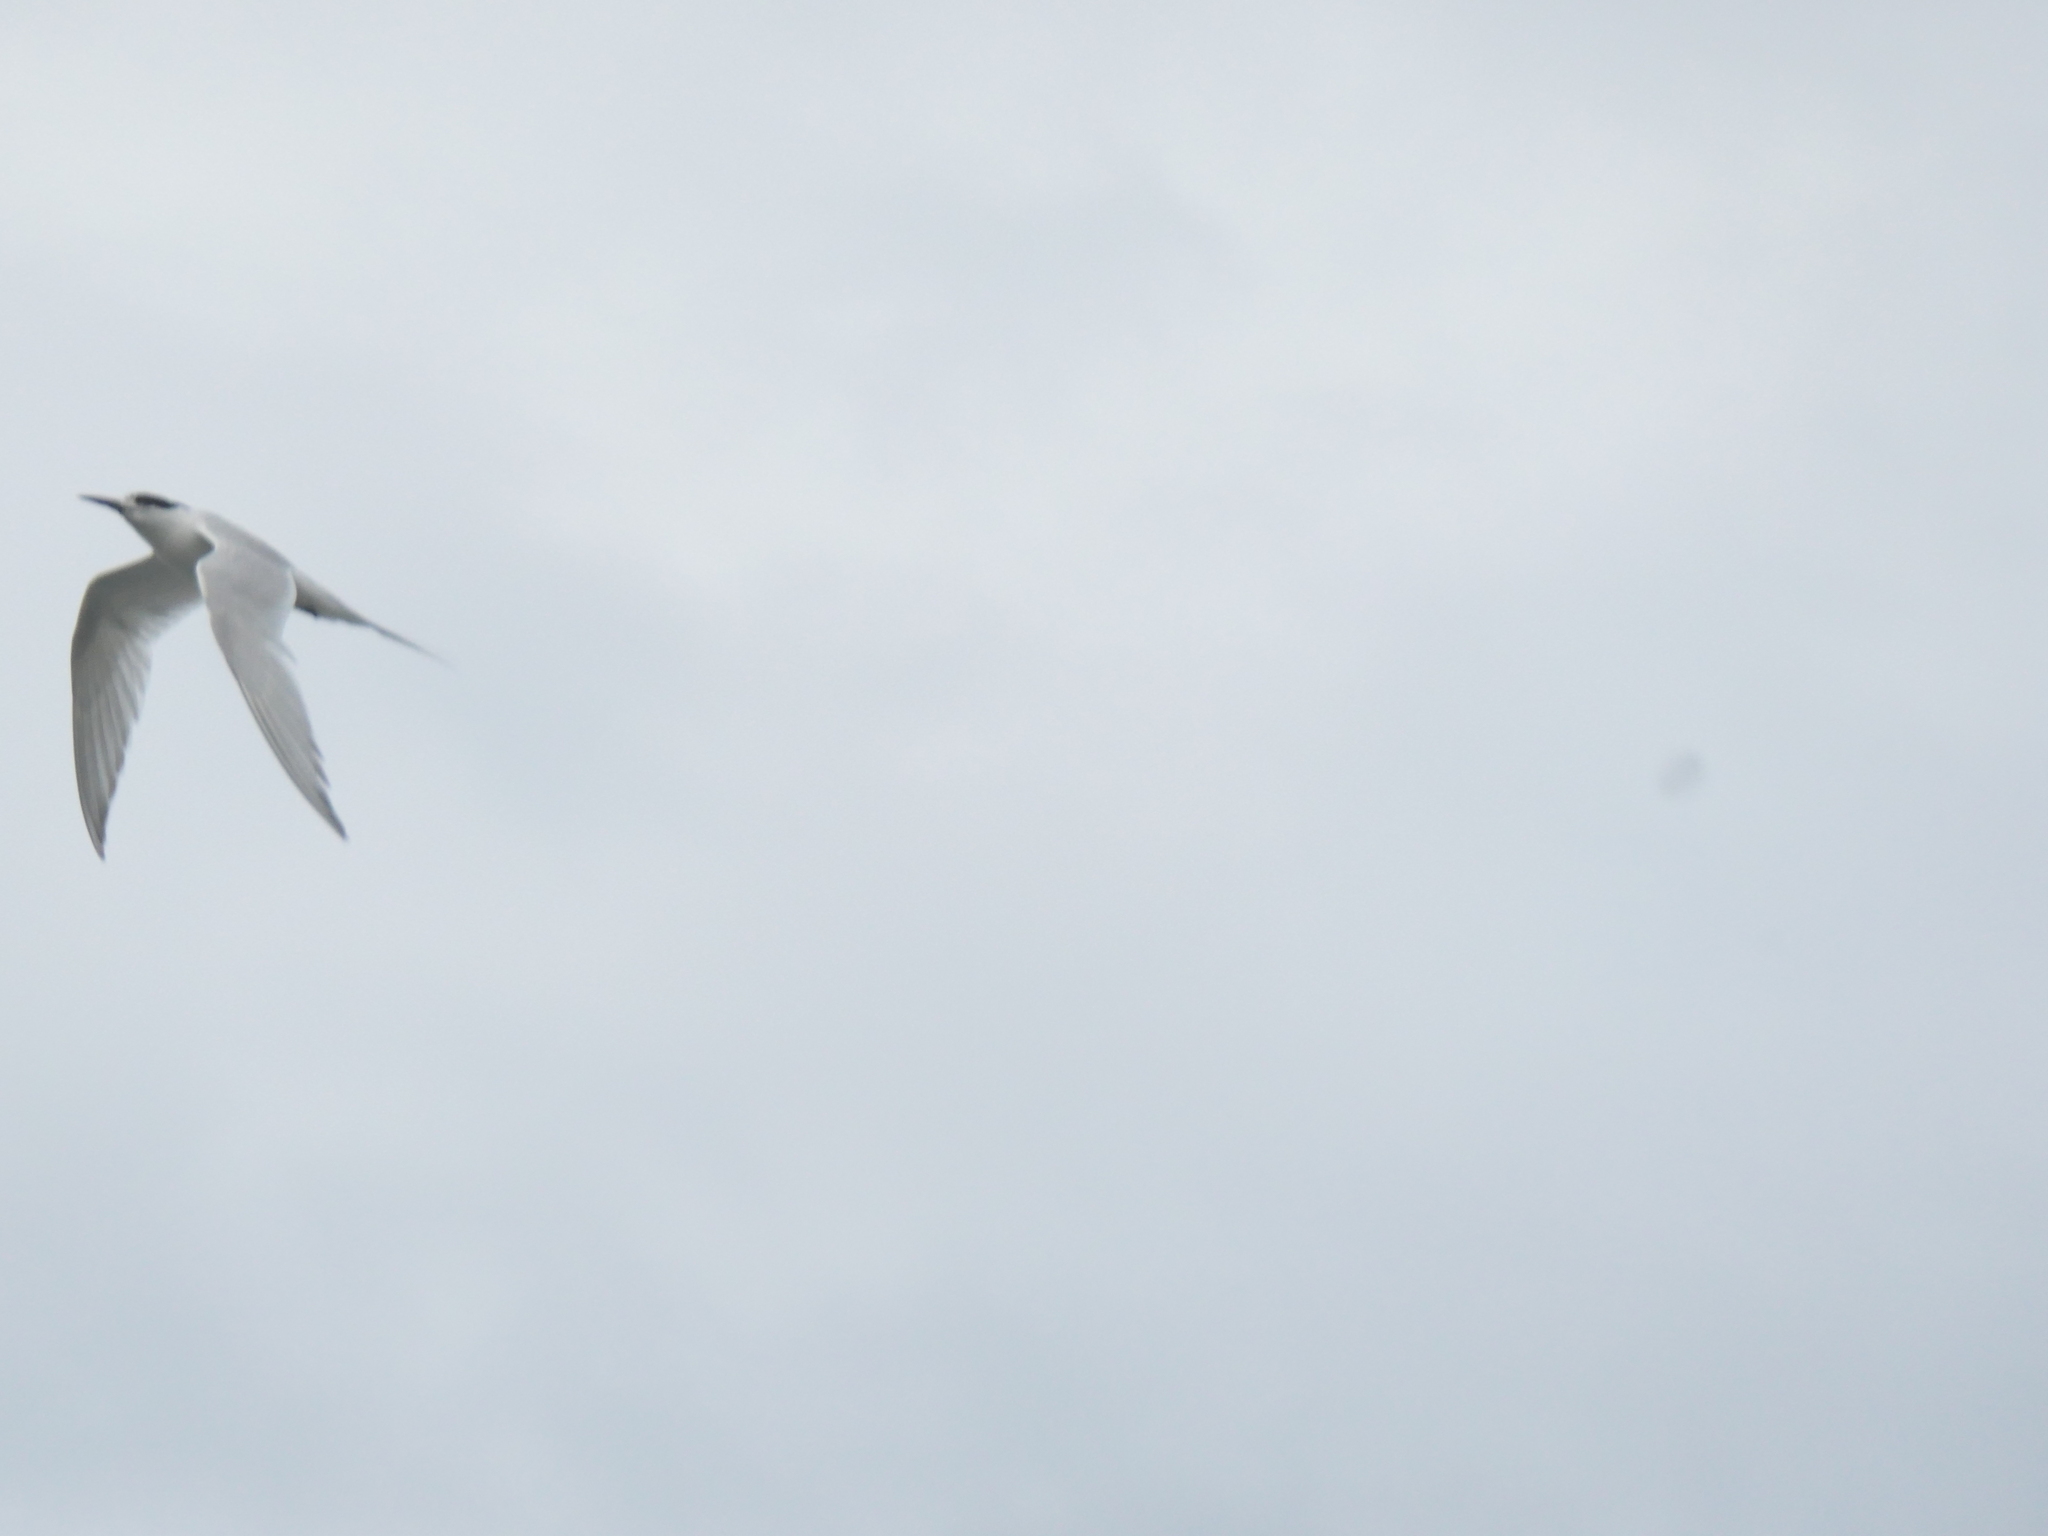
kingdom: Animalia
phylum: Chordata
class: Aves
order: Charadriiformes
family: Laridae
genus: Sterna
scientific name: Sterna striata
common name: White-fronted tern
